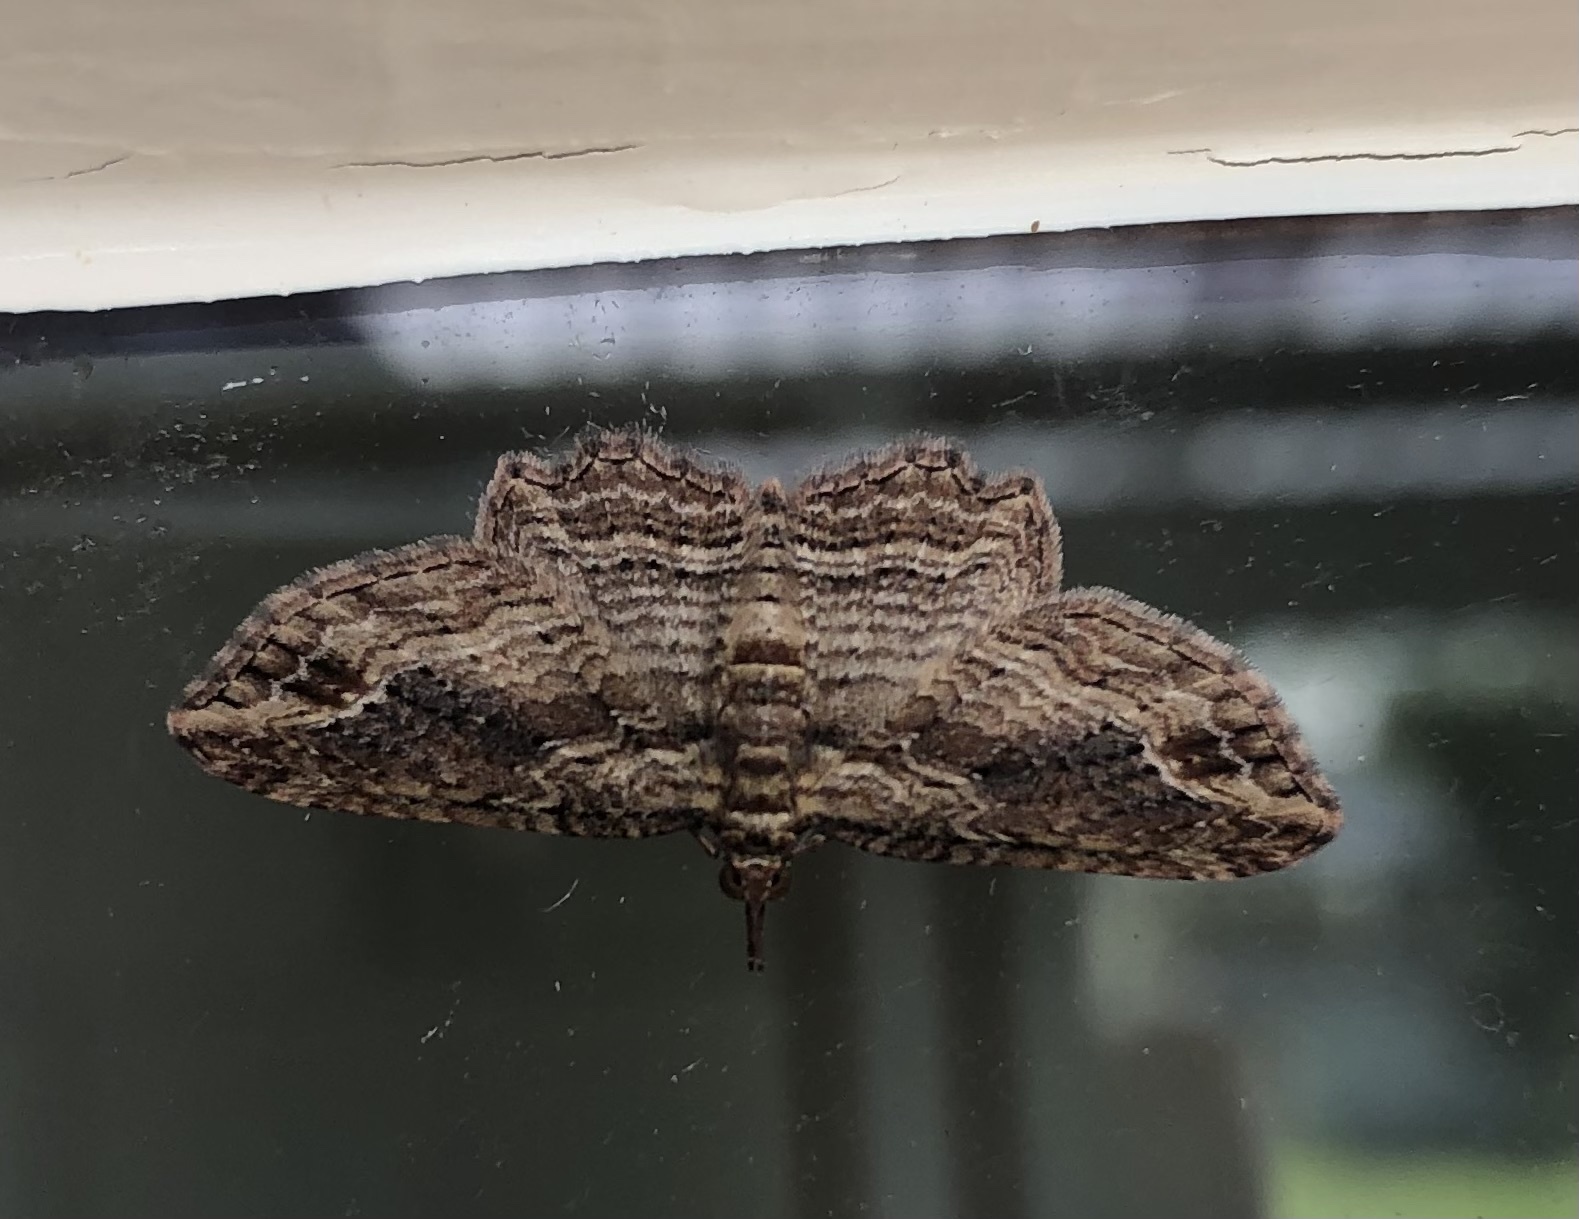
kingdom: Animalia
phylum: Arthropoda
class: Insecta
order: Lepidoptera
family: Geometridae
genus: Chloroclystis
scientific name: Chloroclystis filata
